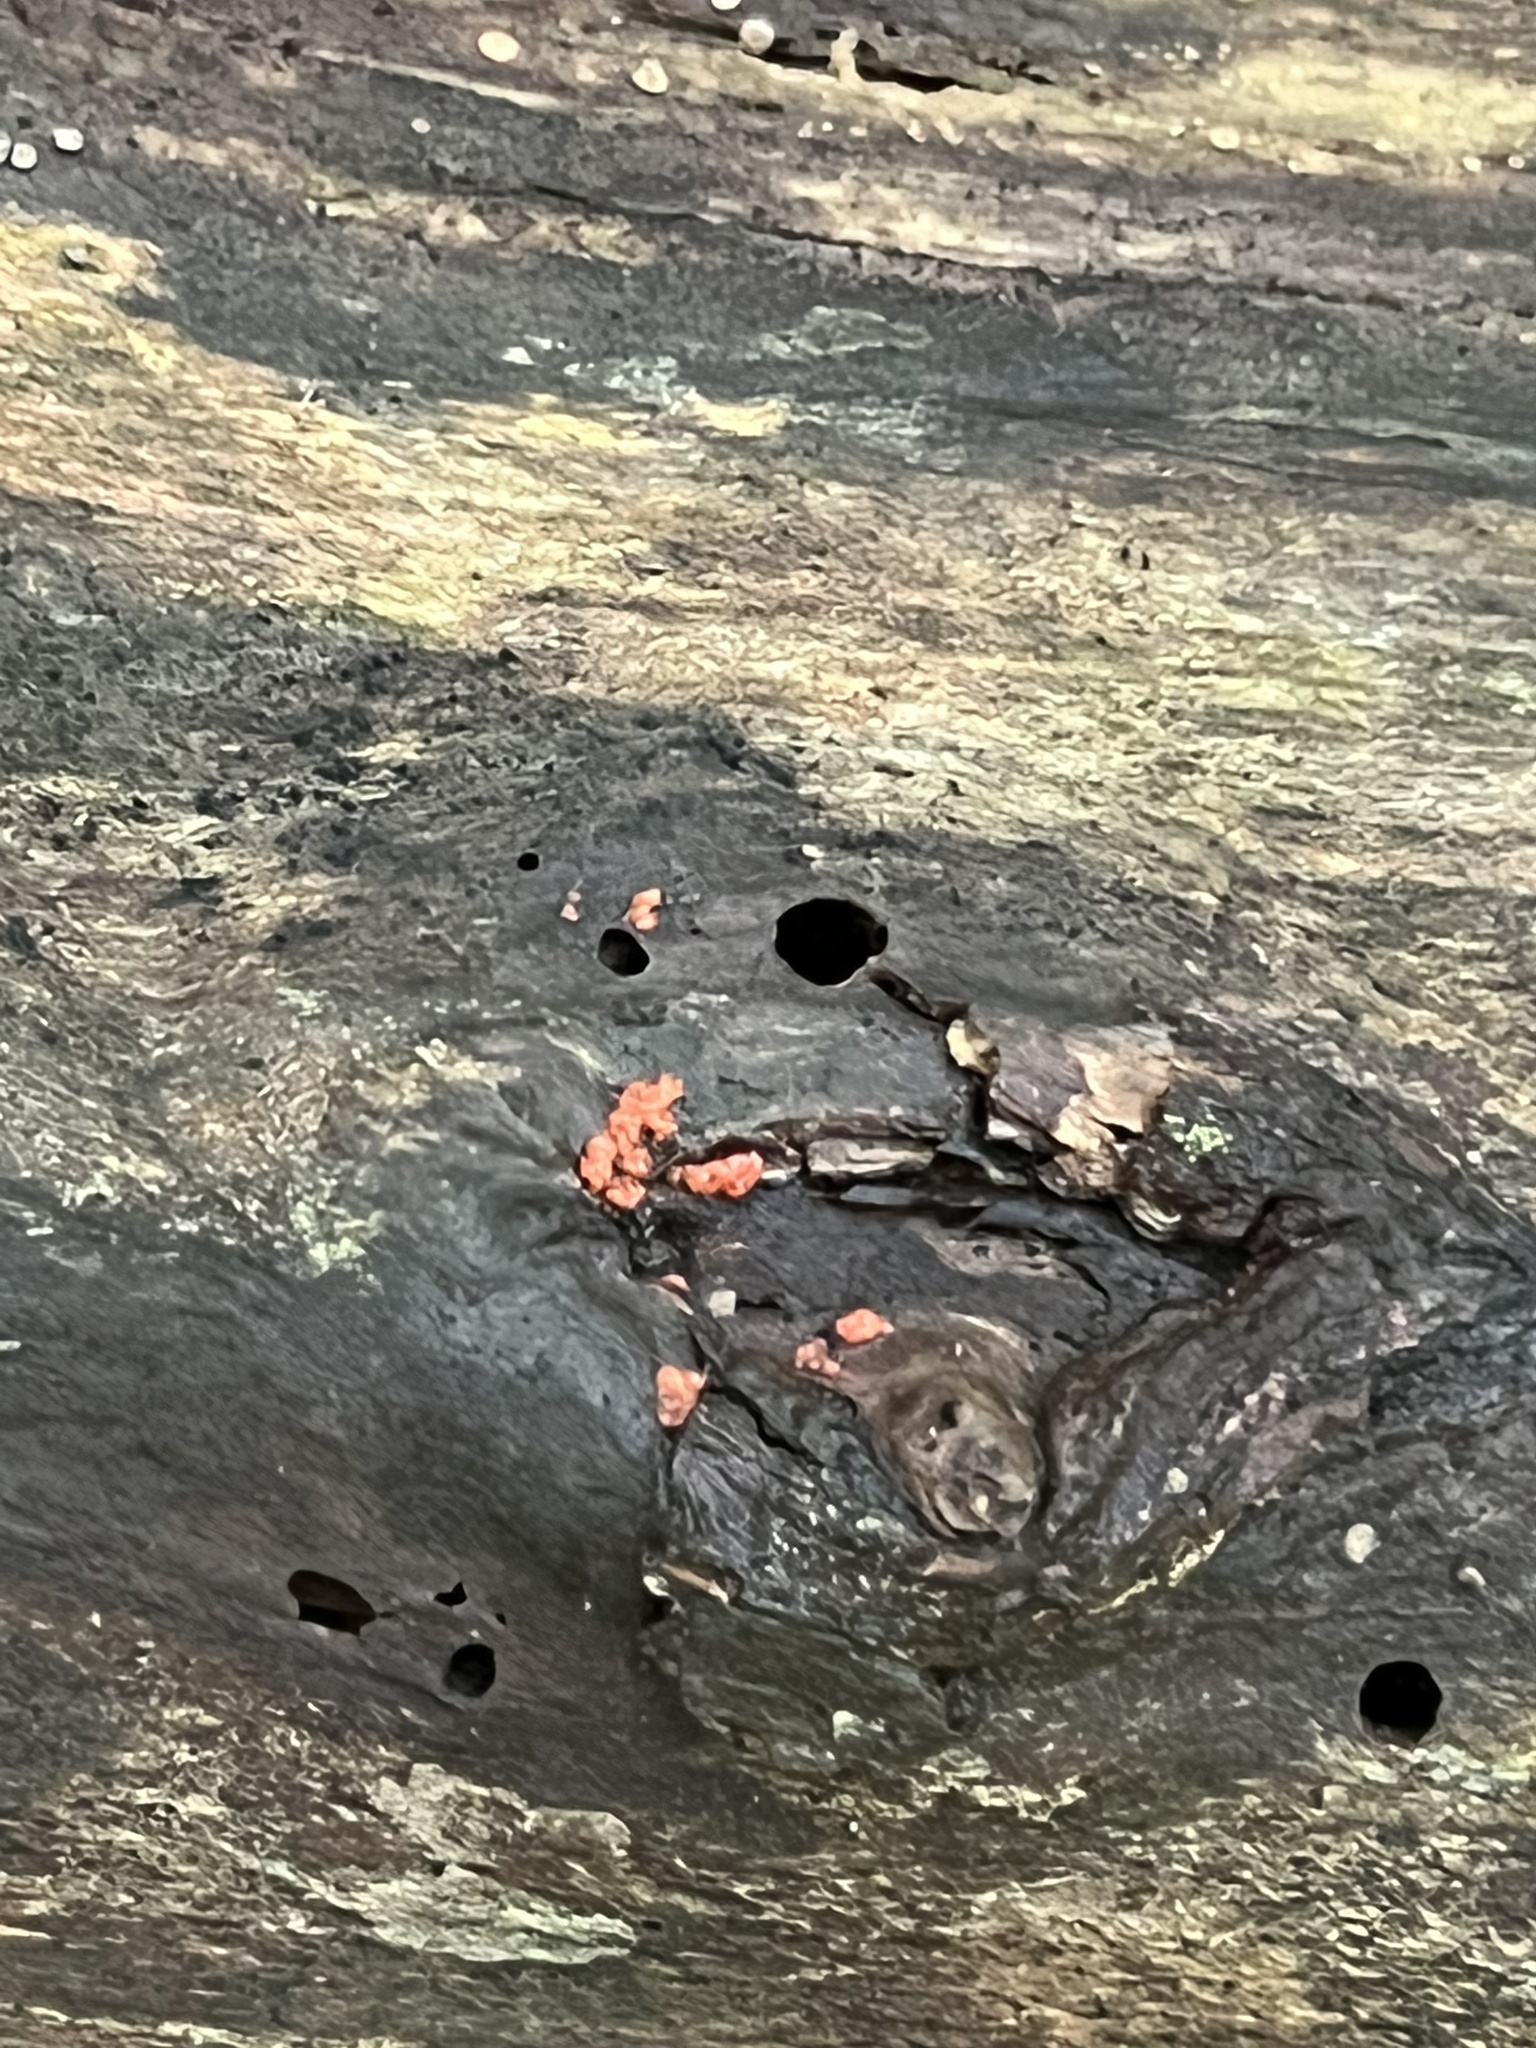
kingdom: Fungi
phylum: Basidiomycota
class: Agaricomycetes
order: Cantharellales
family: Tulasnellaceae
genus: Tulasnella
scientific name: Tulasnella aurantiaca
